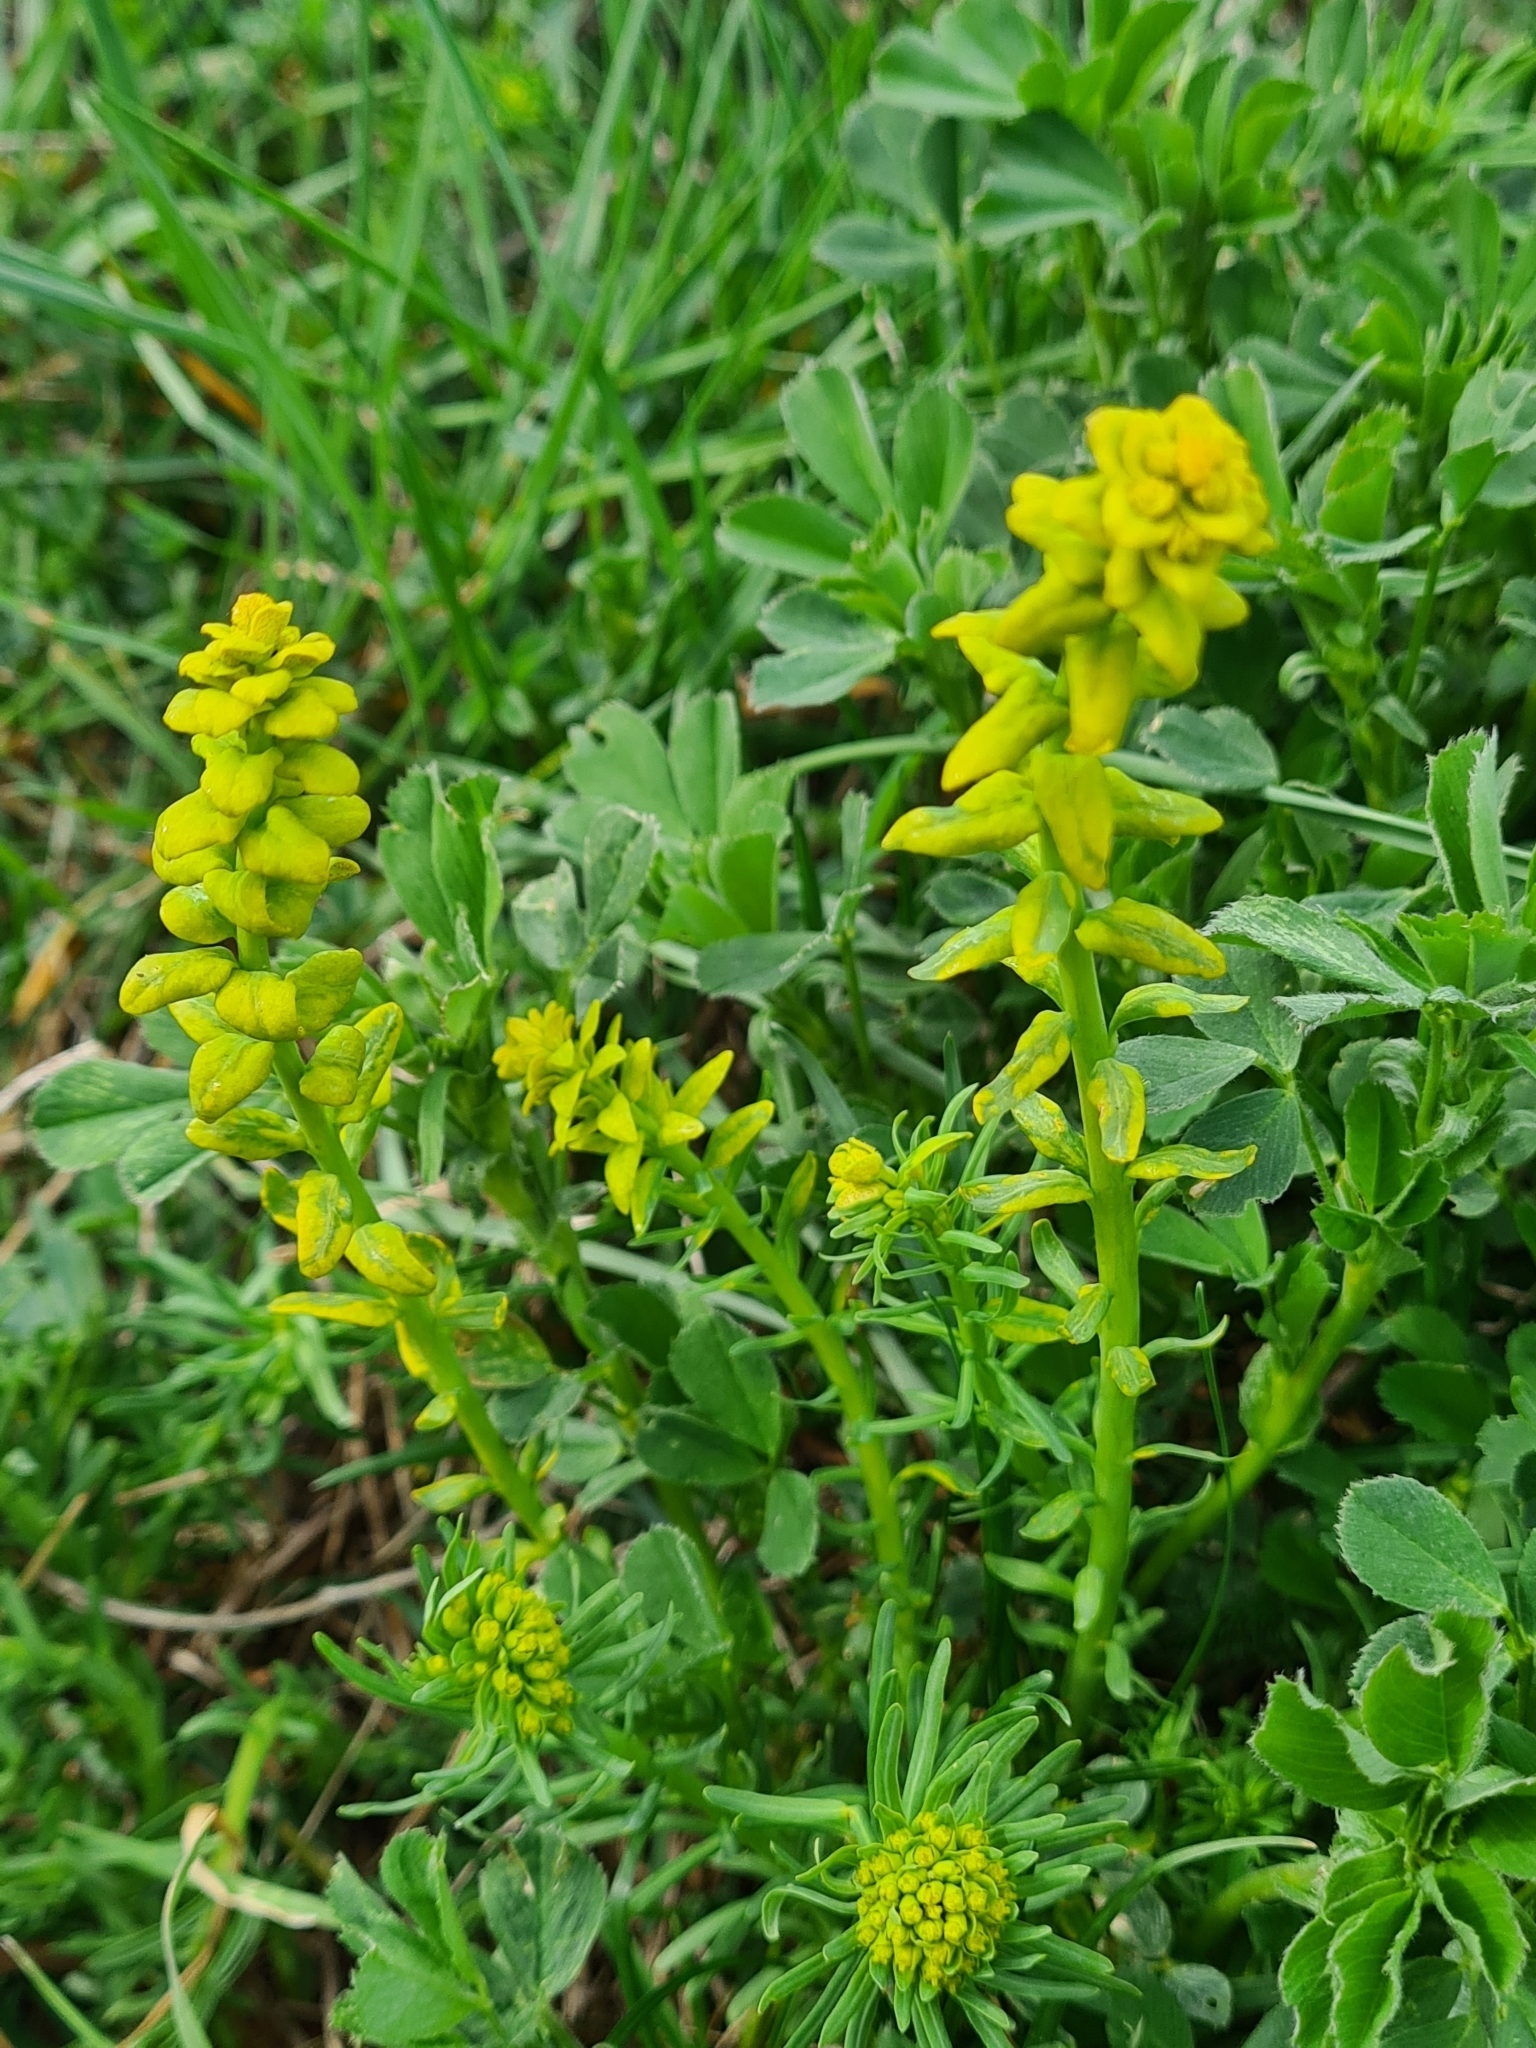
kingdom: Plantae
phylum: Tracheophyta
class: Magnoliopsida
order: Malpighiales
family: Euphorbiaceae
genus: Euphorbia
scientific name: Euphorbia cyparissias
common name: Cypress spurge
